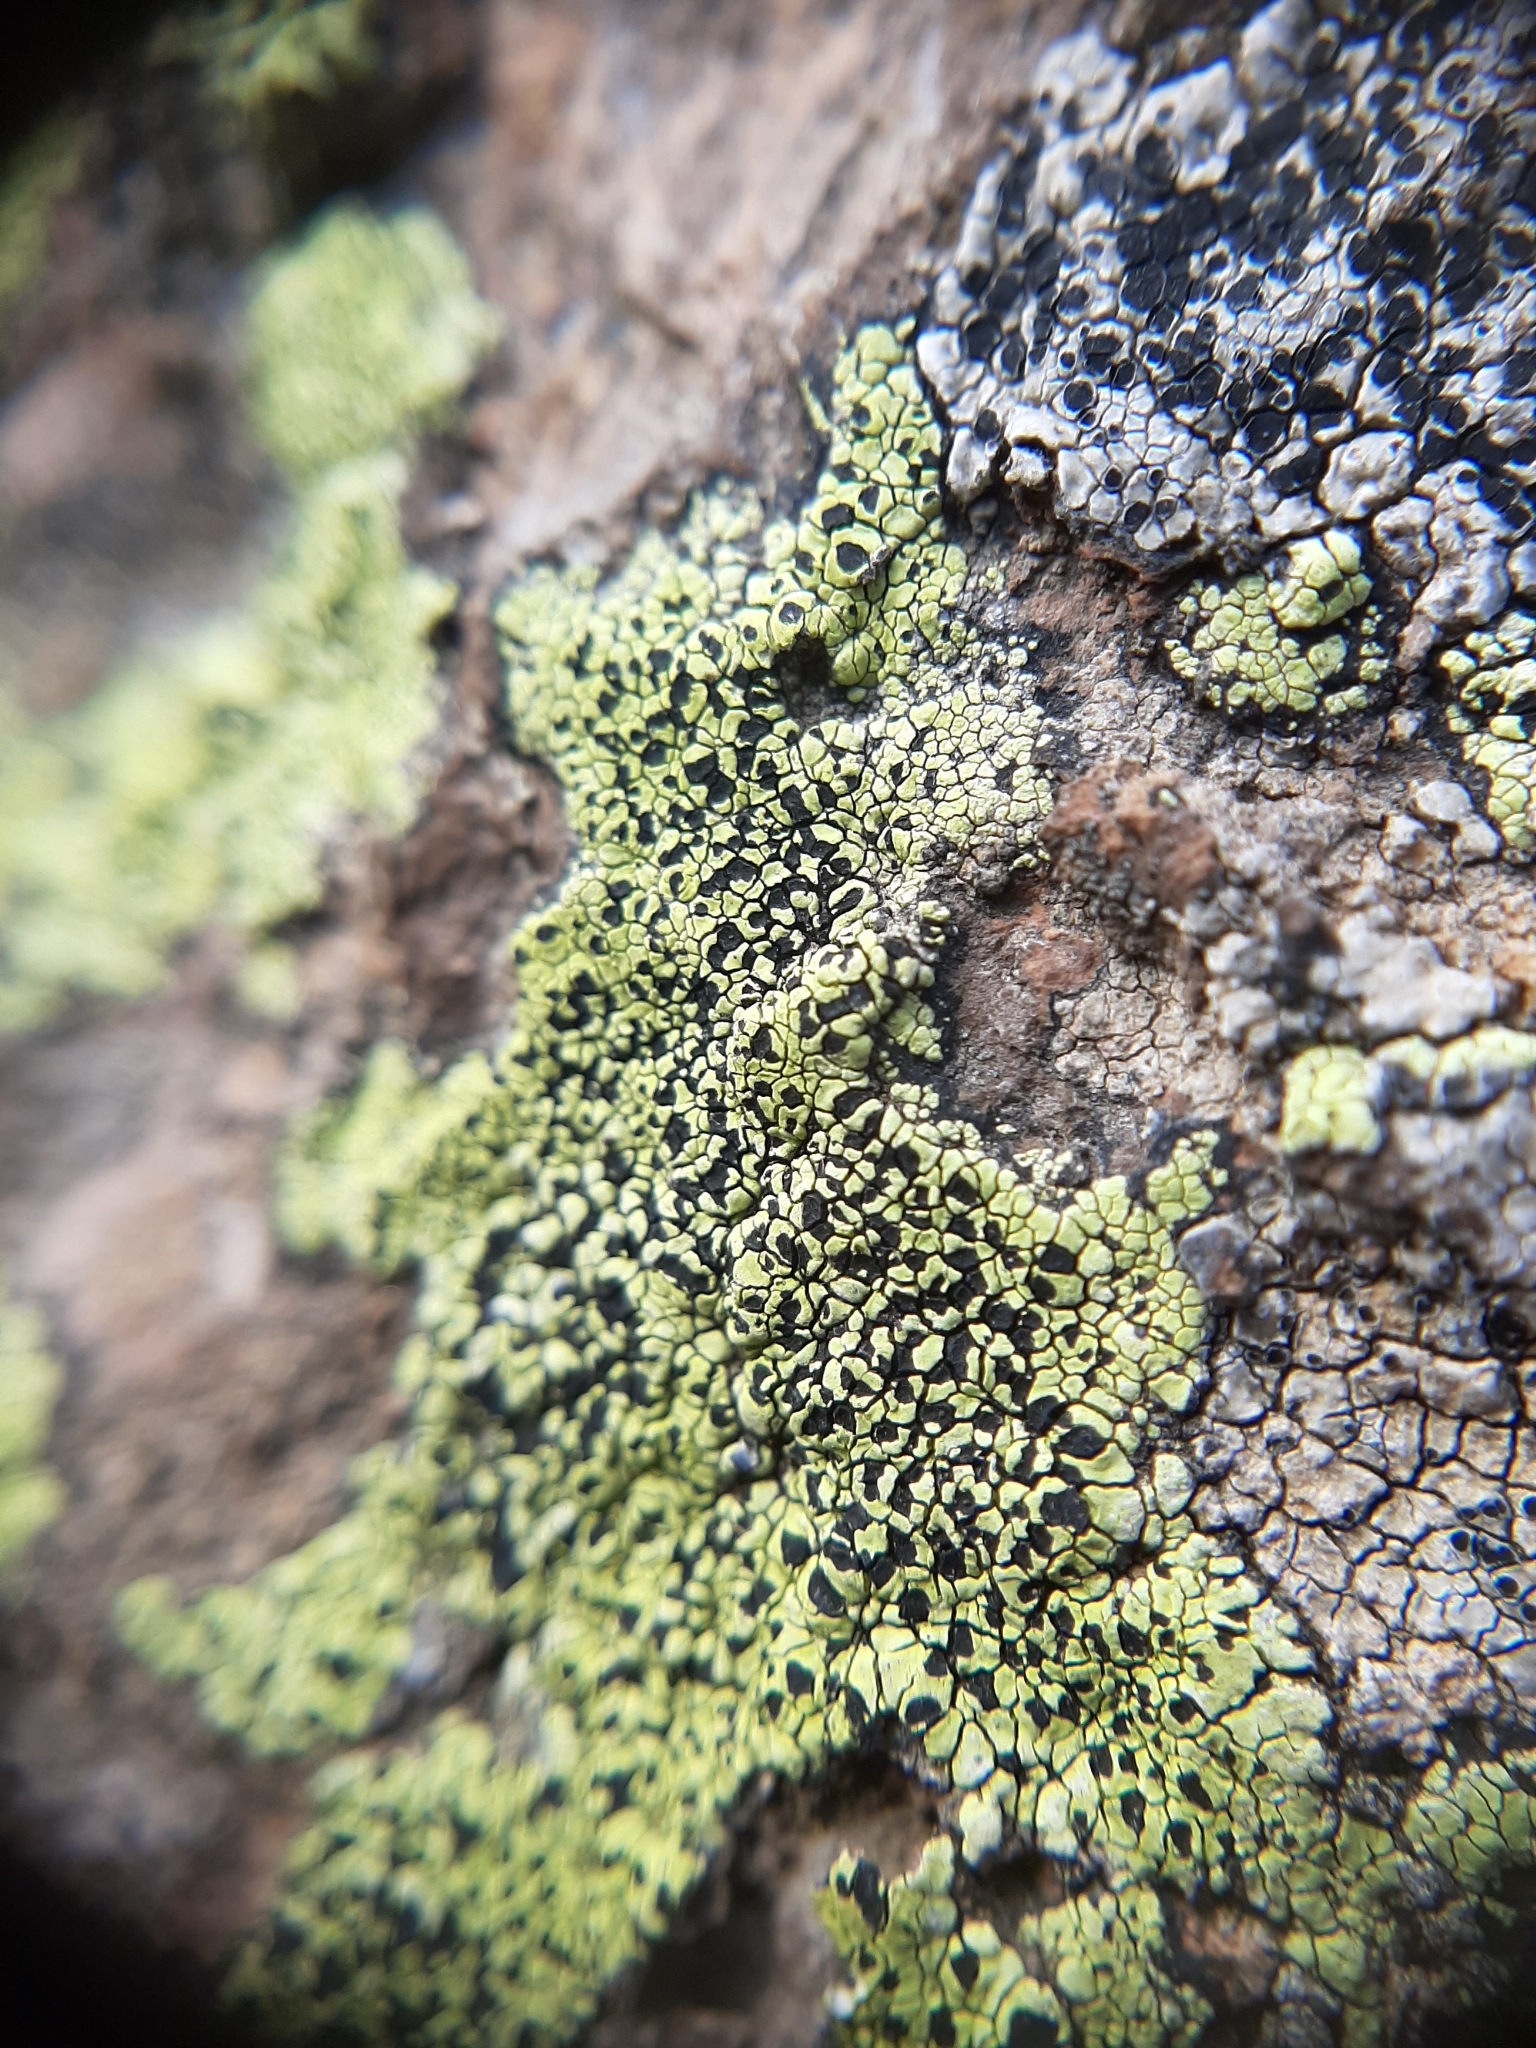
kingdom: Fungi
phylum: Ascomycota
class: Lecanoromycetes
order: Rhizocarpales
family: Rhizocarpaceae
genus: Rhizocarpon
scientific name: Rhizocarpon geographicum
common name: Yellow map lichen
